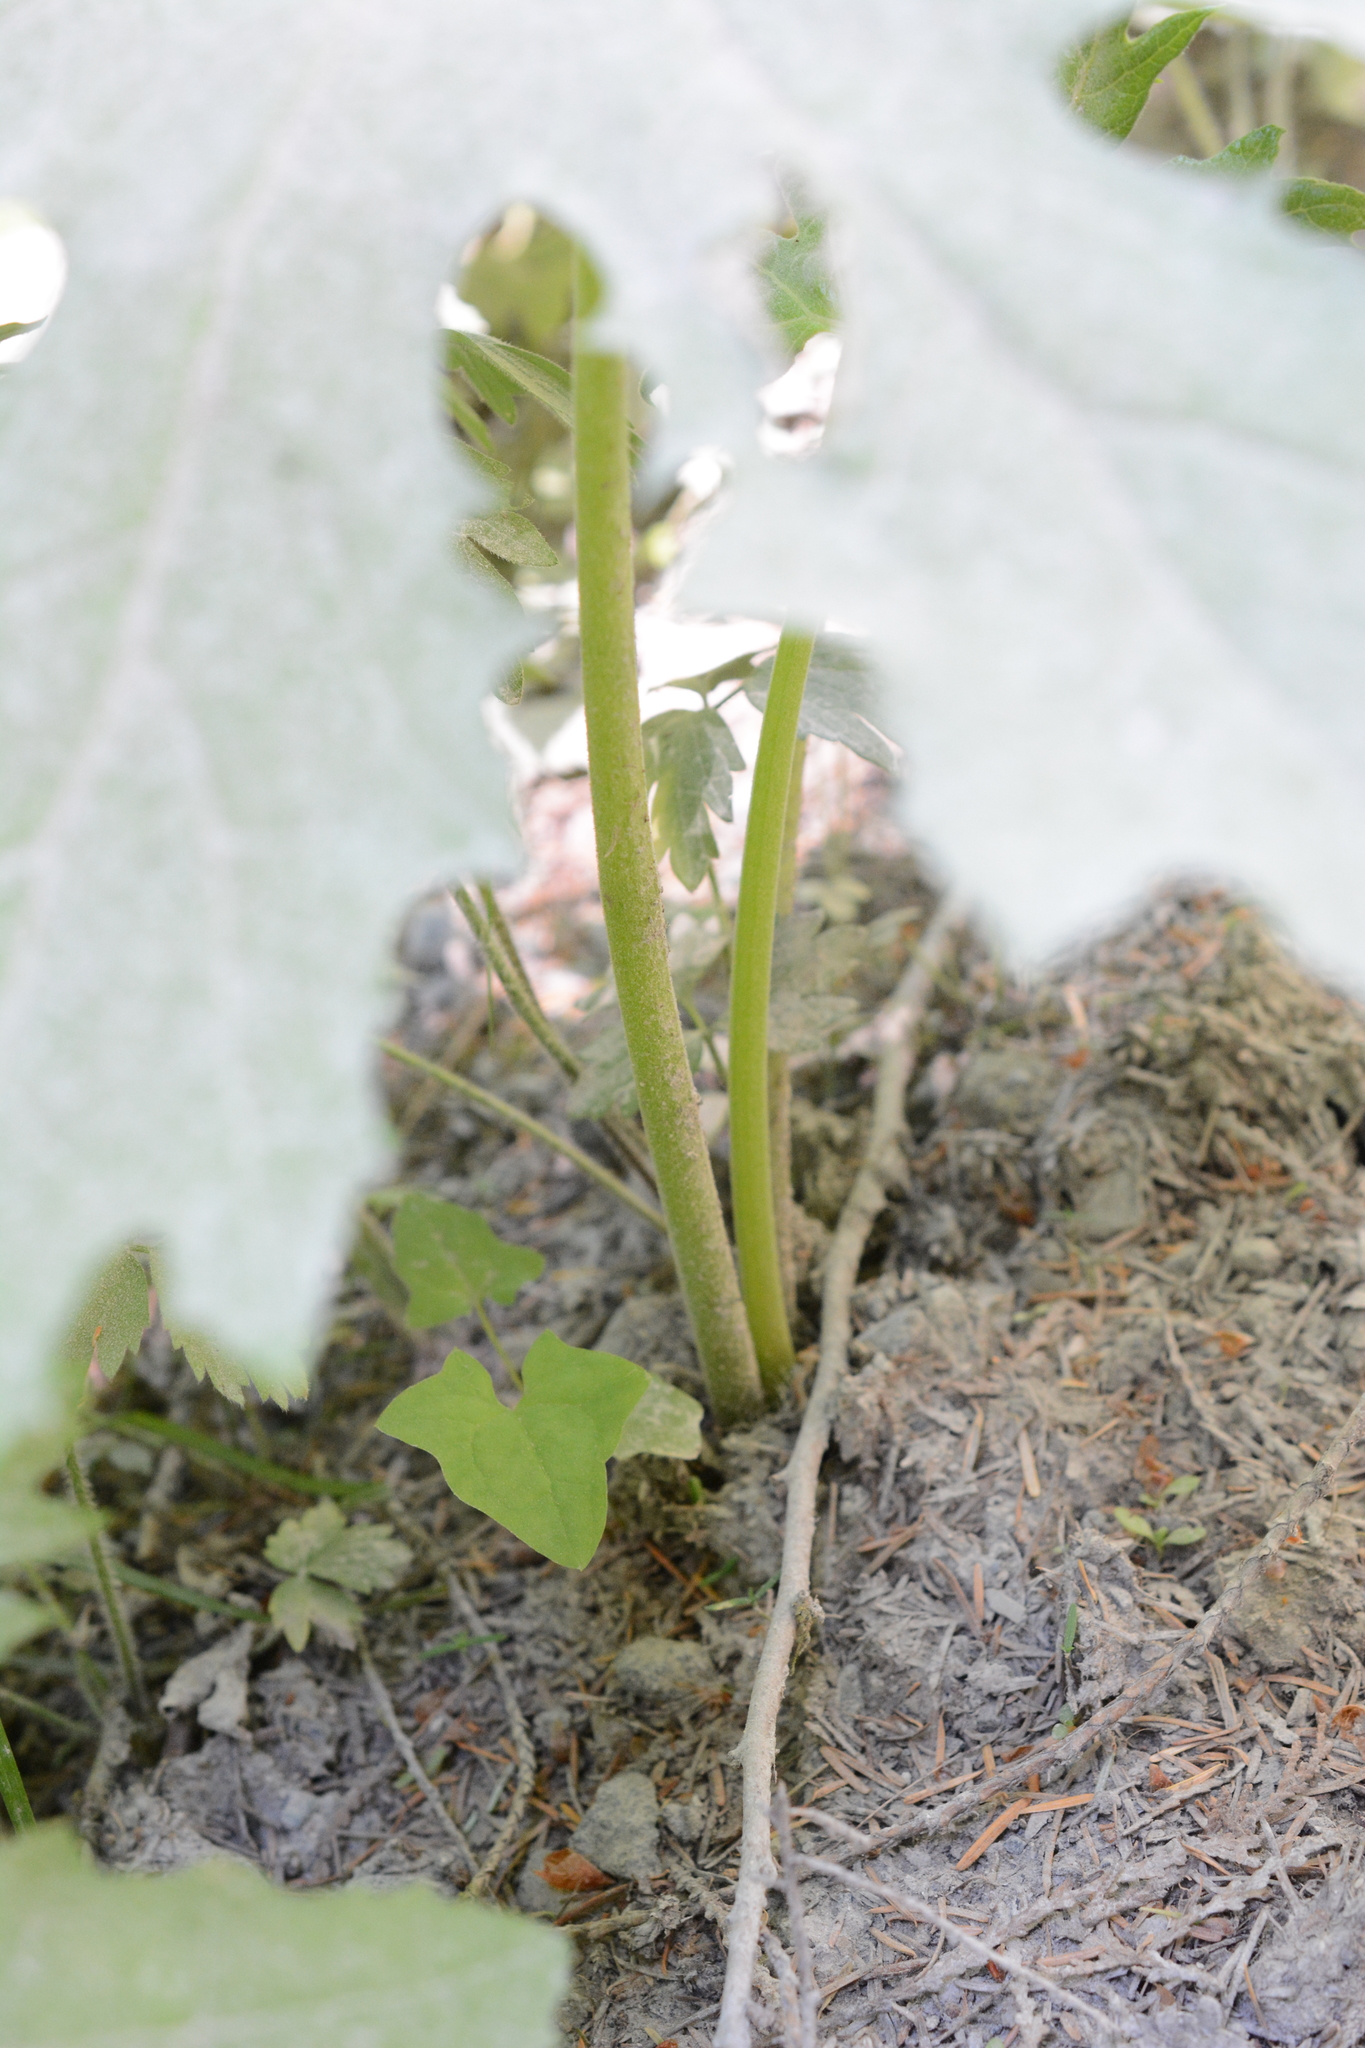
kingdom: Plantae
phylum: Tracheophyta
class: Magnoliopsida
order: Asterales
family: Asteraceae
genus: Petasites
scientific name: Petasites frigidus
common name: Arctic butterbur
